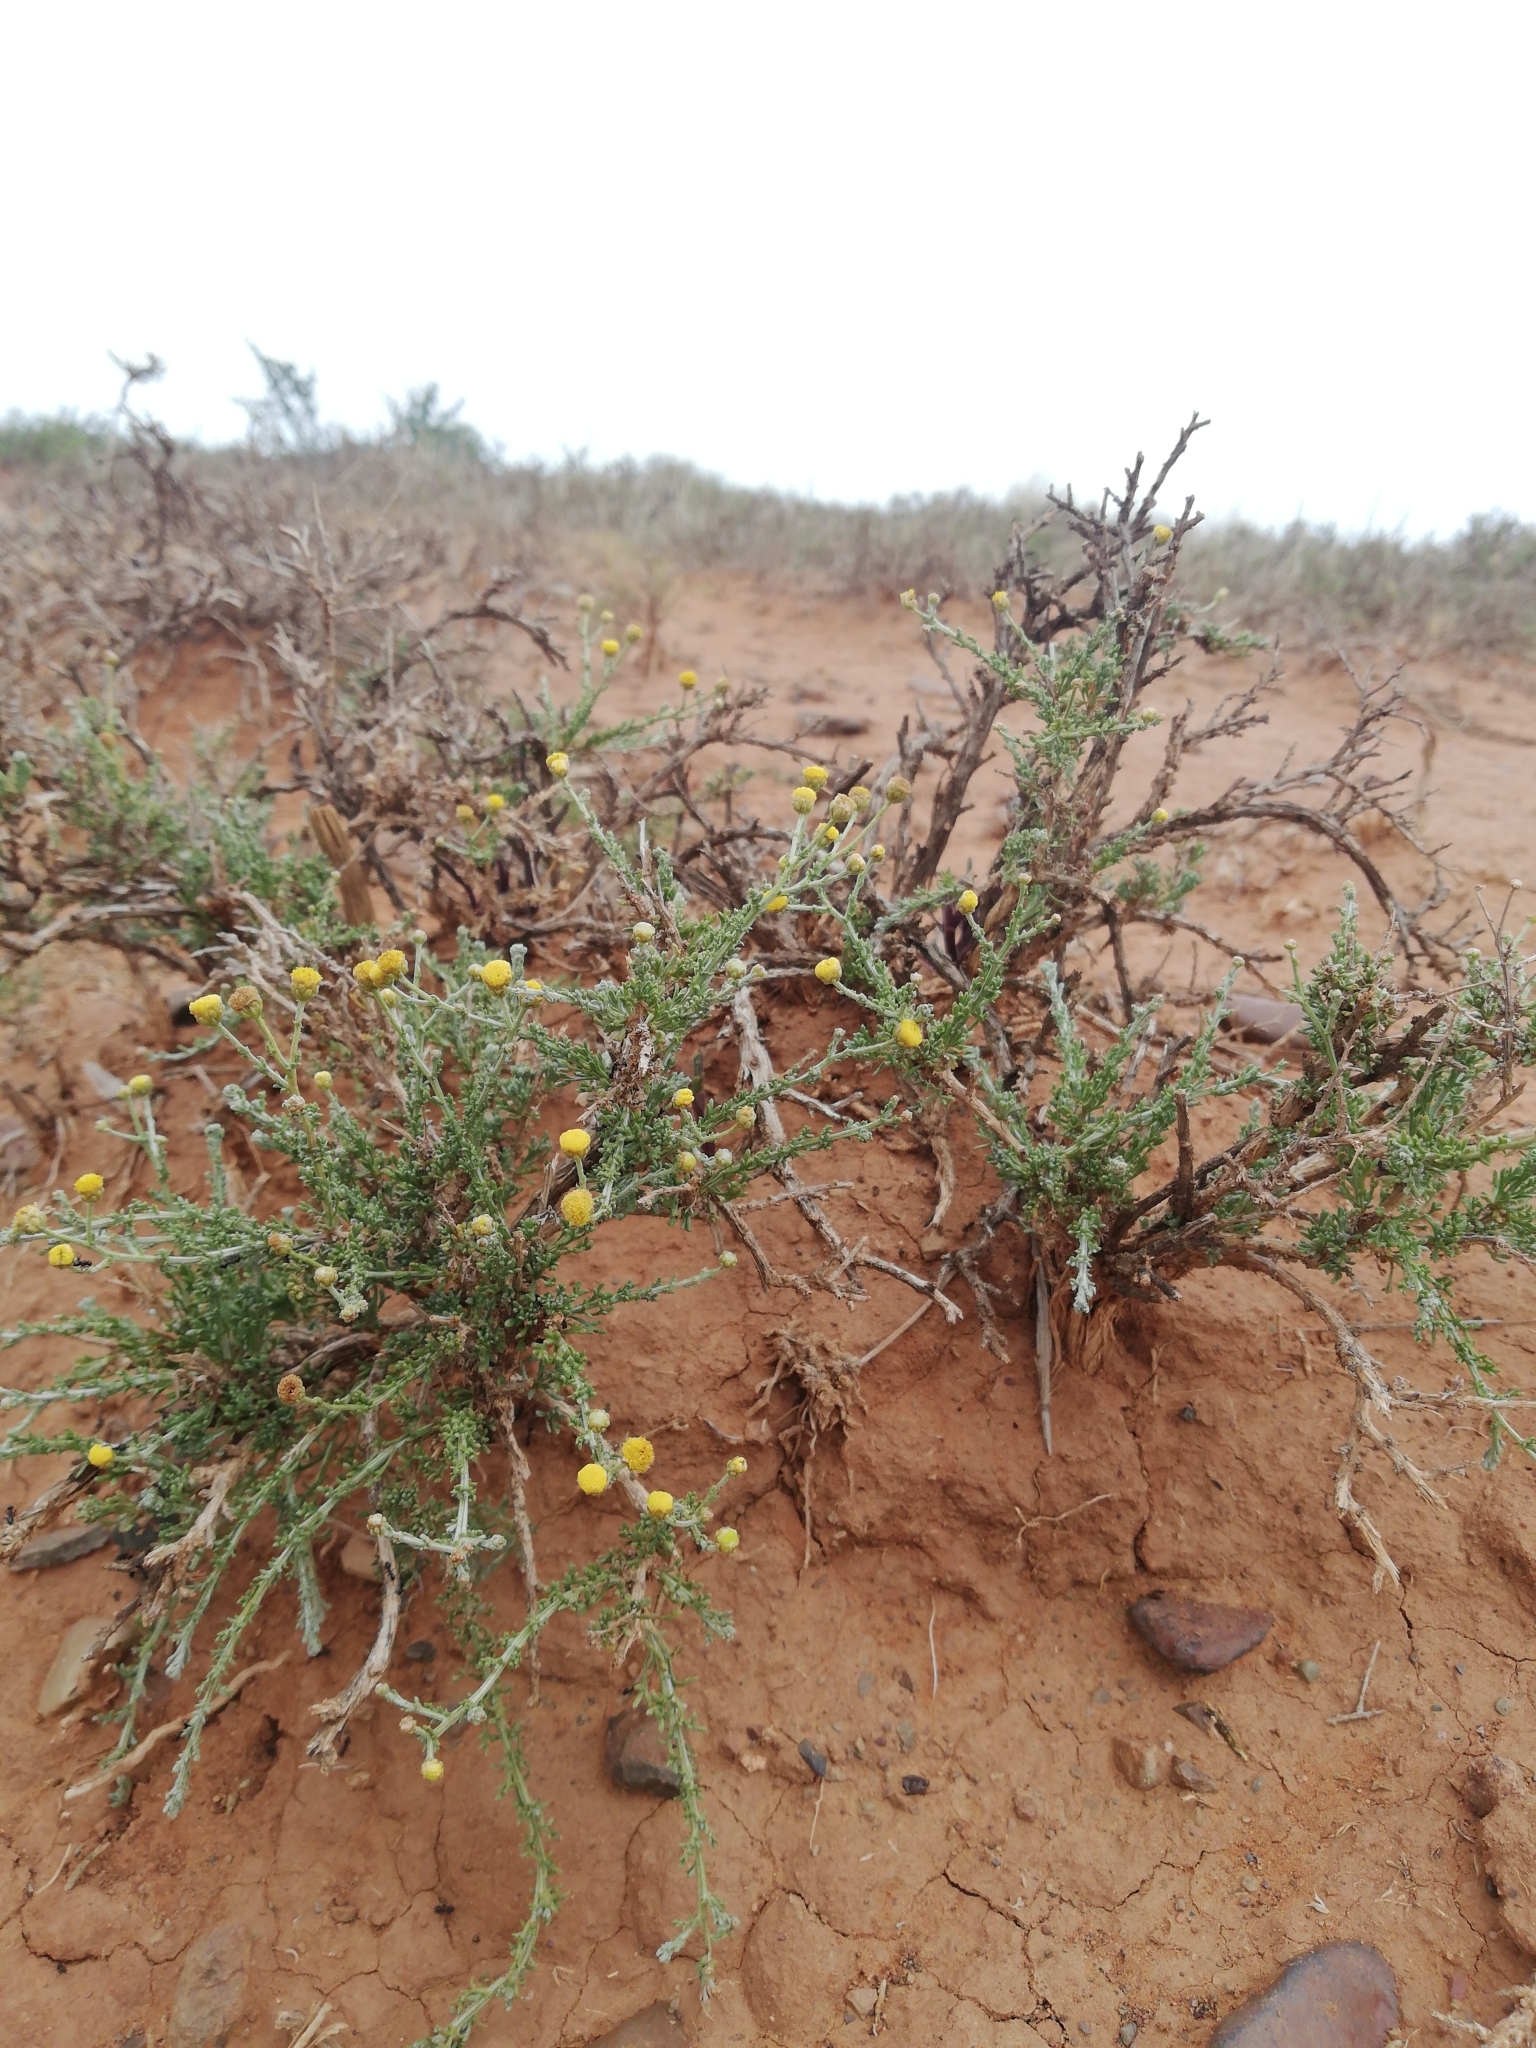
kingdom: Plantae
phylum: Tracheophyta
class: Magnoliopsida
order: Asterales
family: Asteraceae
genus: Pentzia
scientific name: Pentzia incana
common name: African sheepbush
